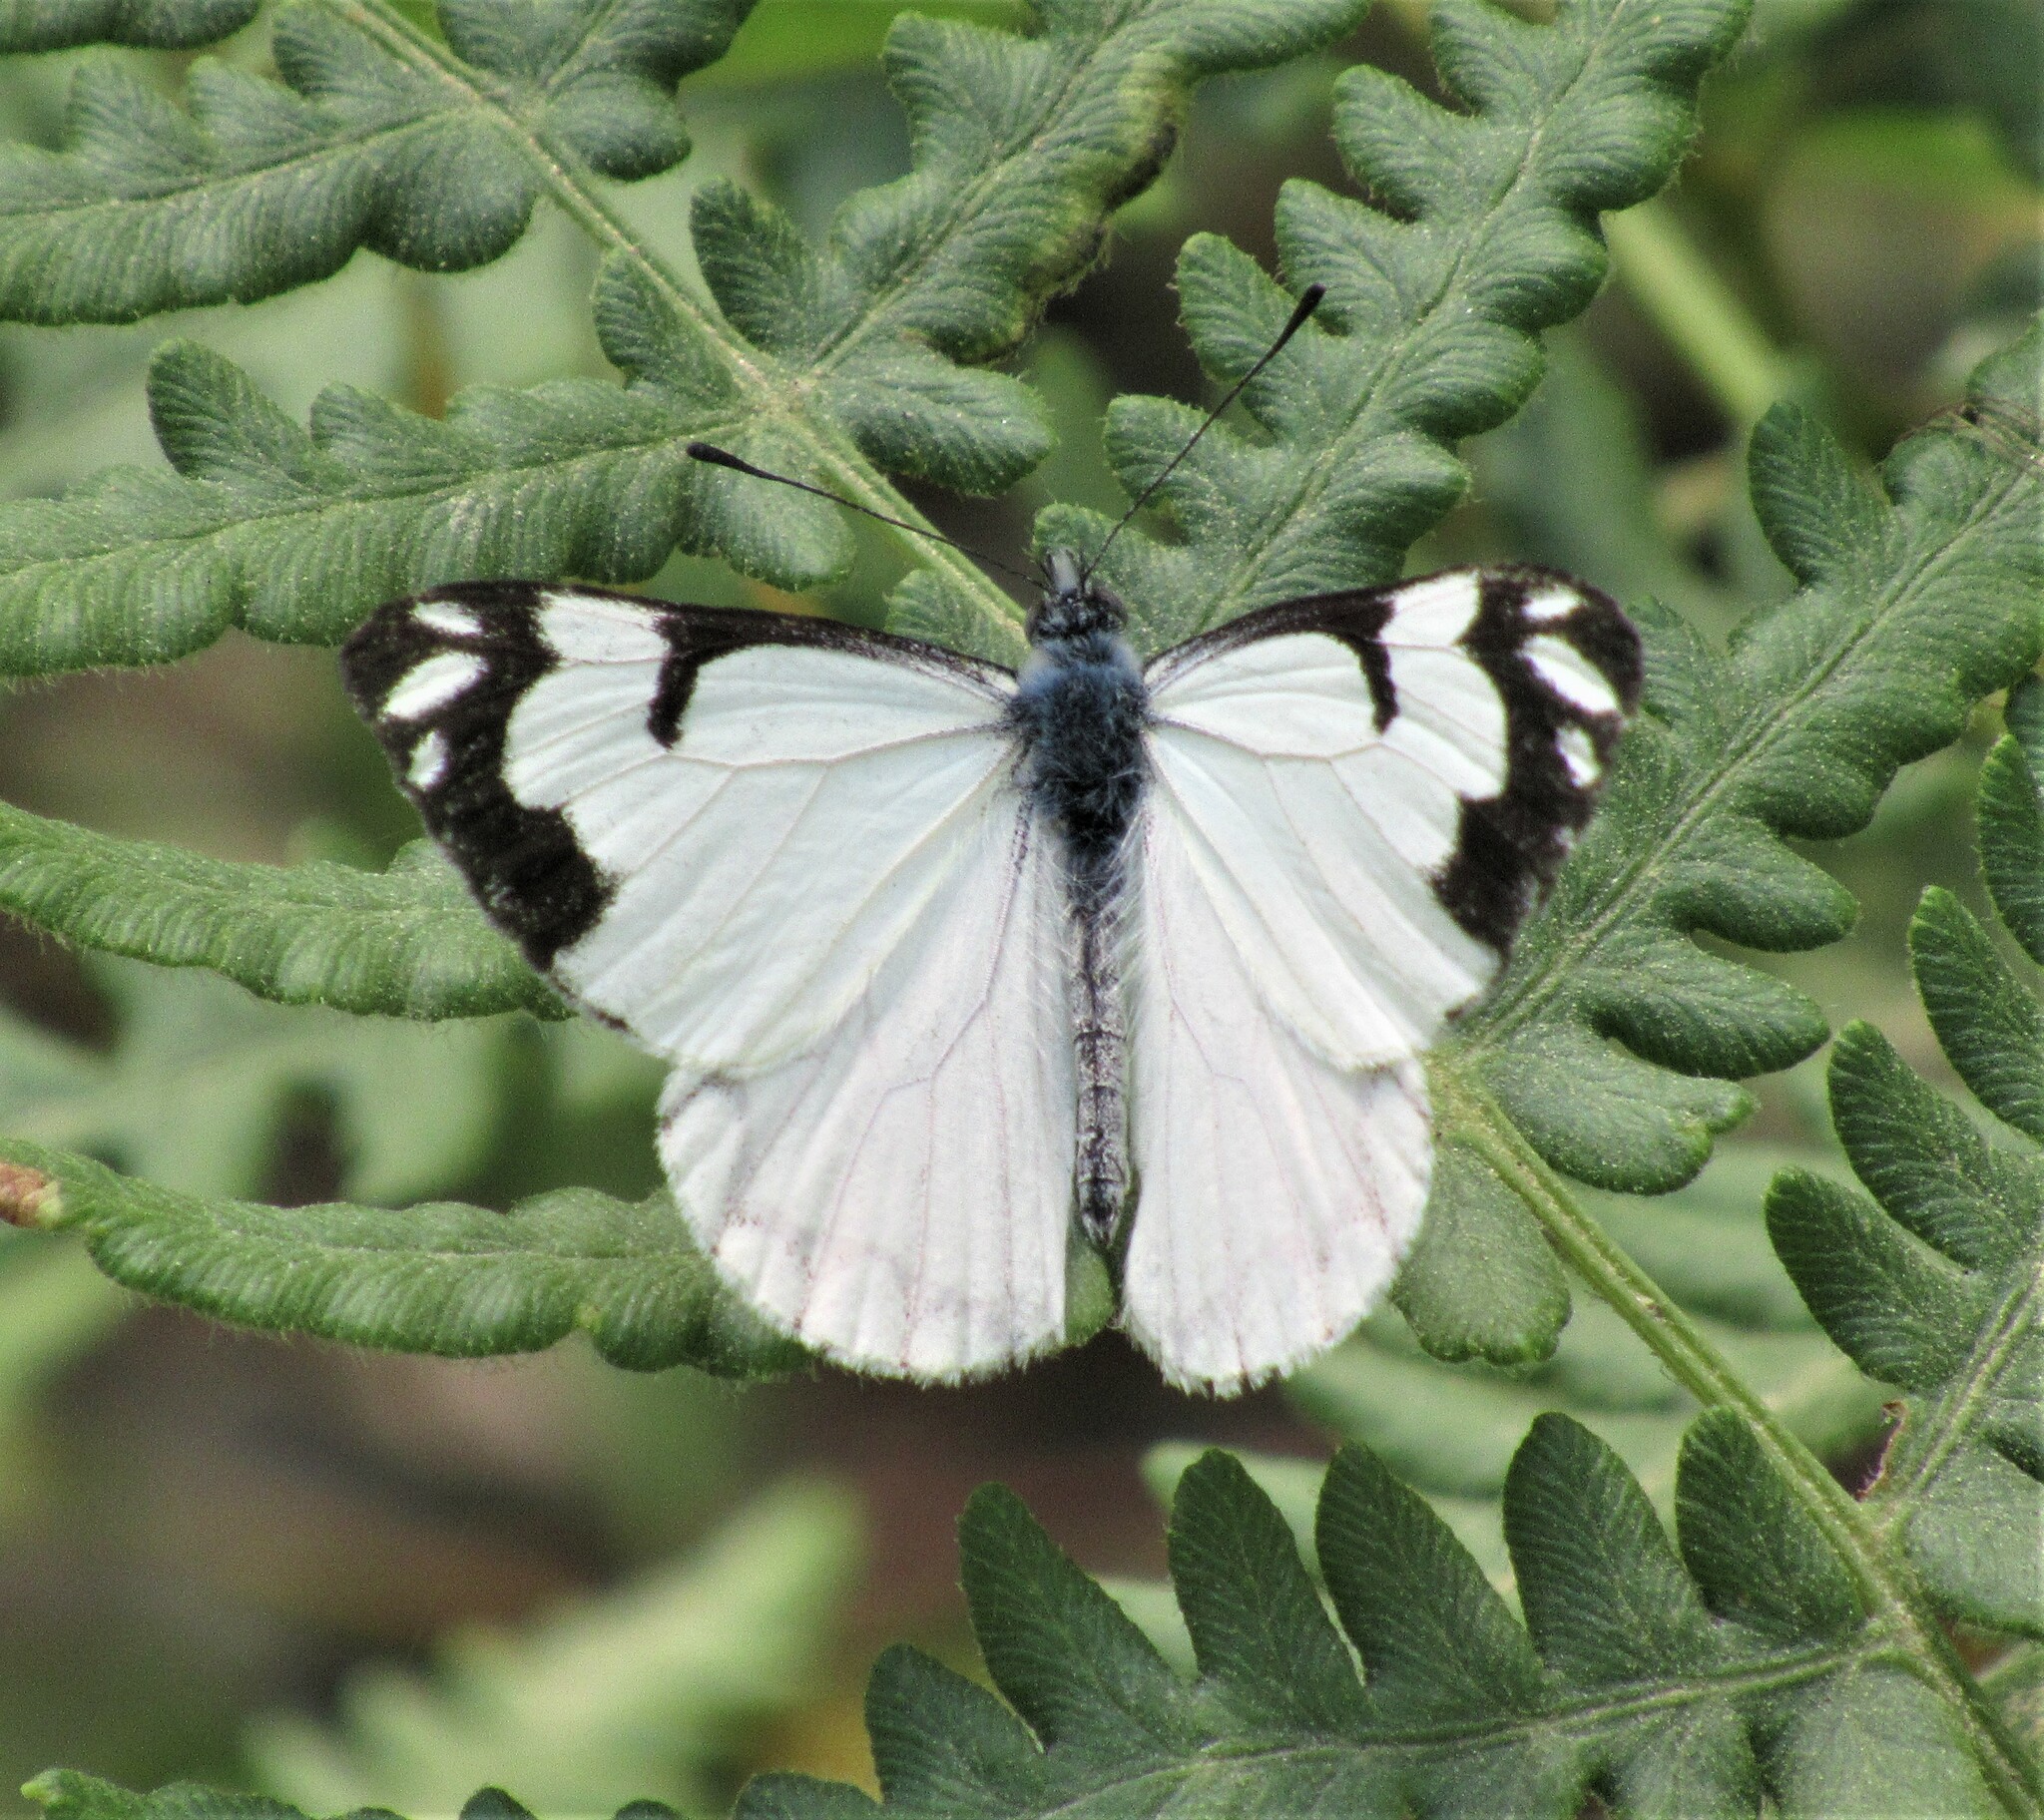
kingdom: Animalia
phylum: Arthropoda
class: Insecta
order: Lepidoptera
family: Pieridae
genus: Neophasia
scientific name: Neophasia menapia
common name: Pine white
